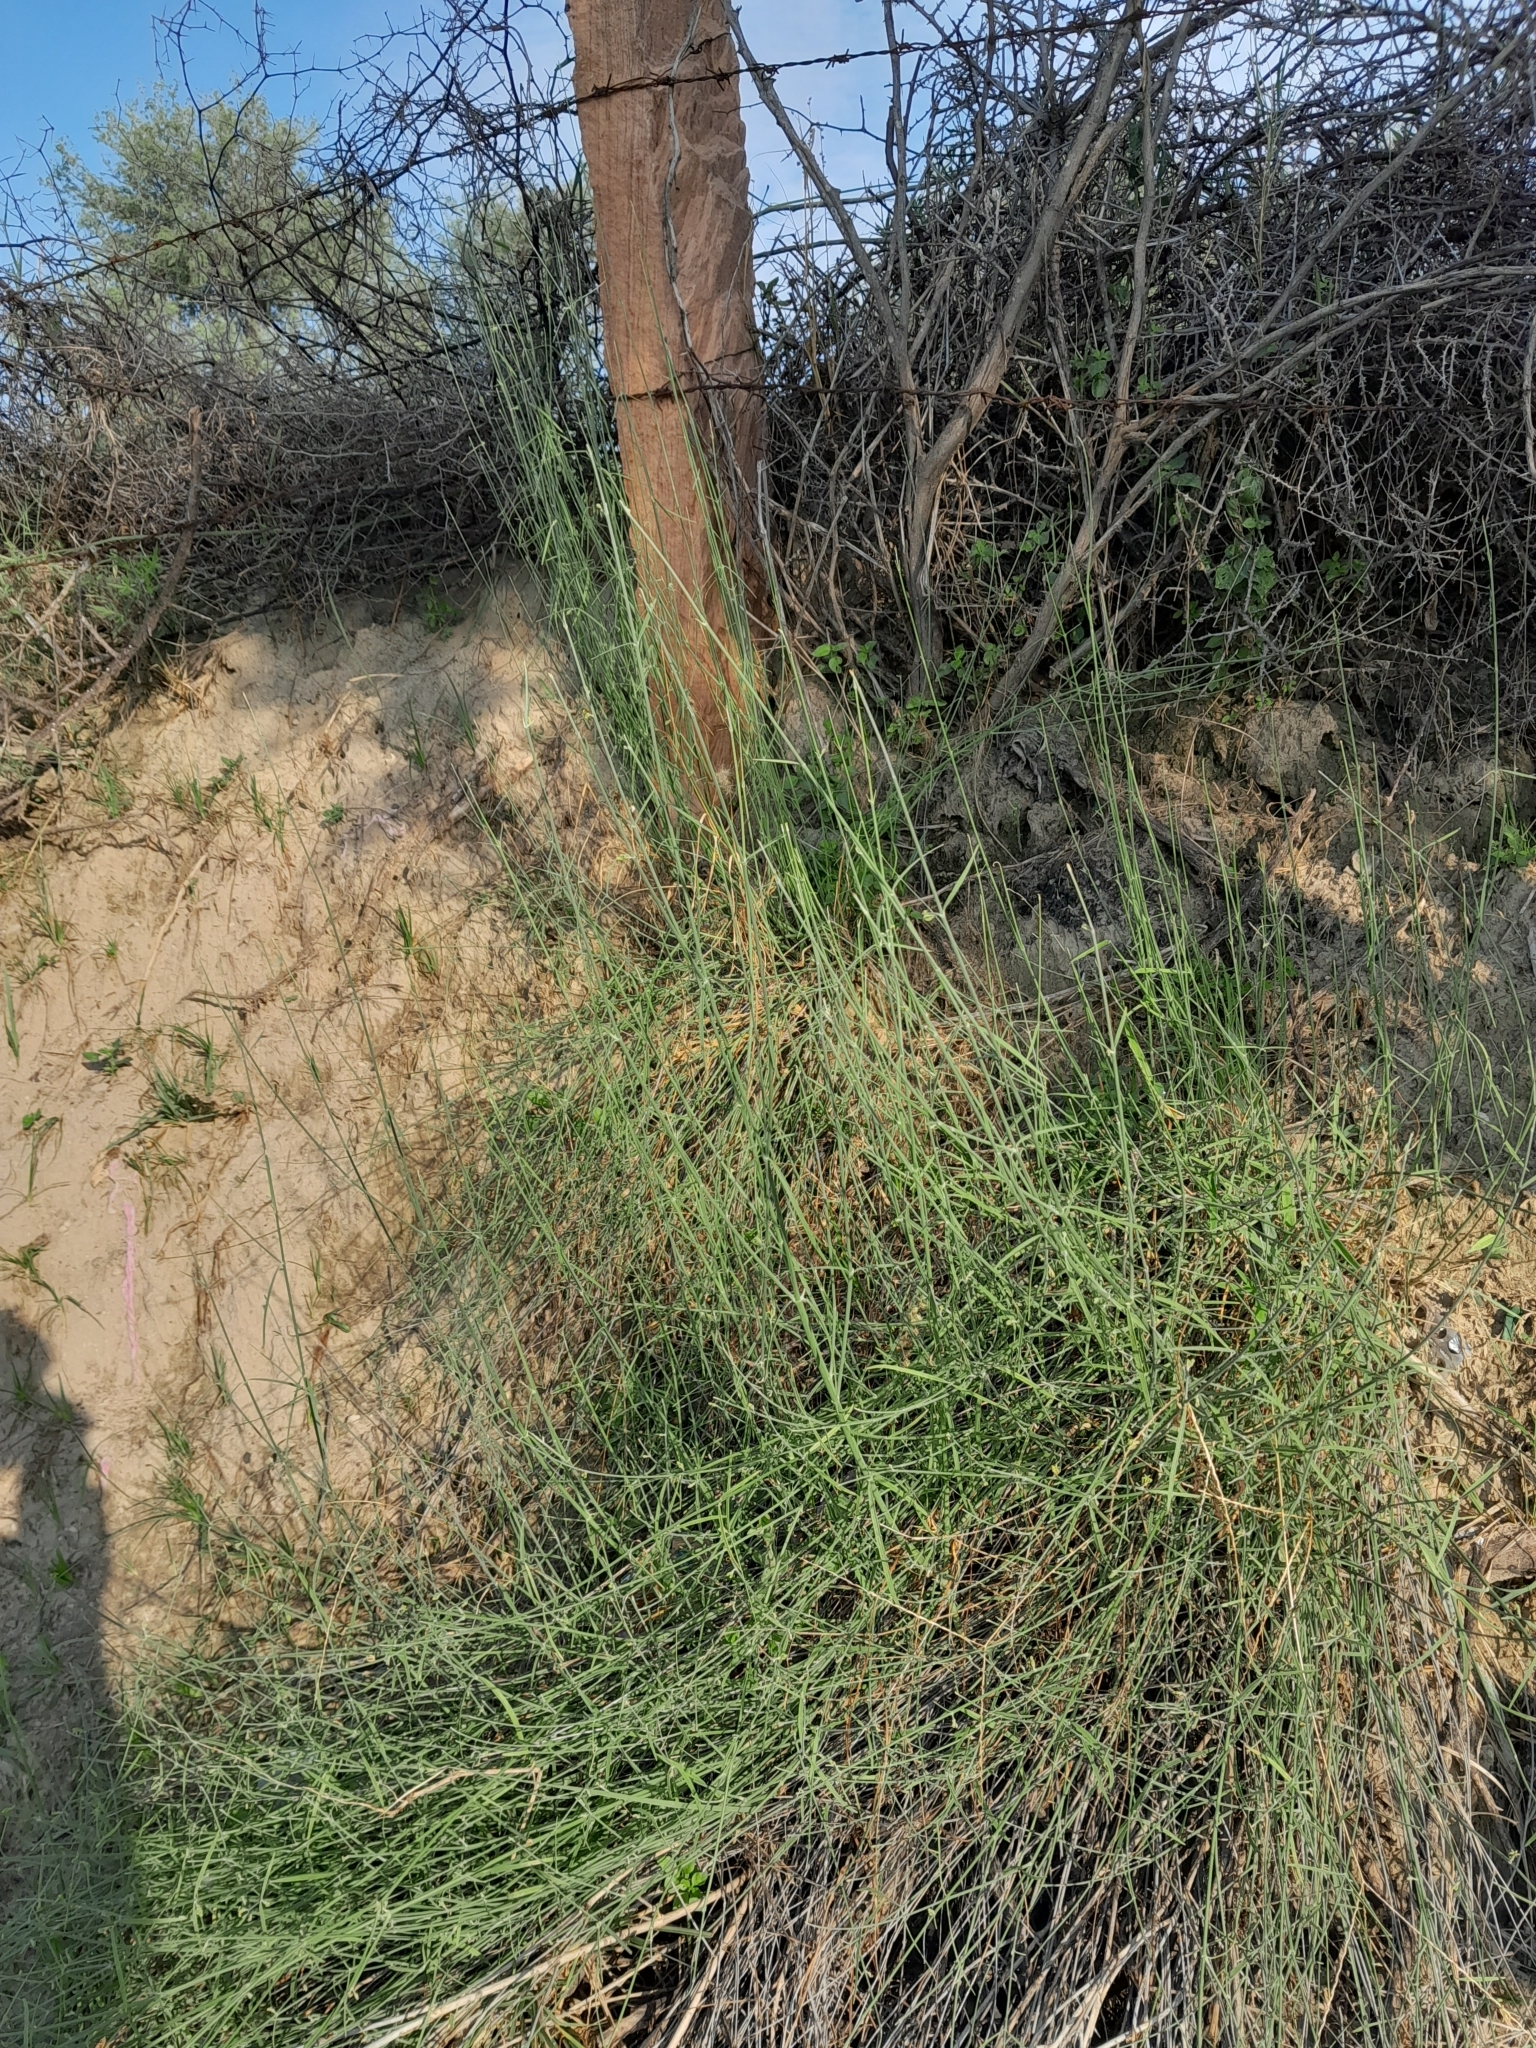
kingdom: Plantae
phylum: Tracheophyta
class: Magnoliopsida
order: Gentianales
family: Apocynaceae
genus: Leptadenia
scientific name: Leptadenia pyrotechnica
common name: Broom brush
